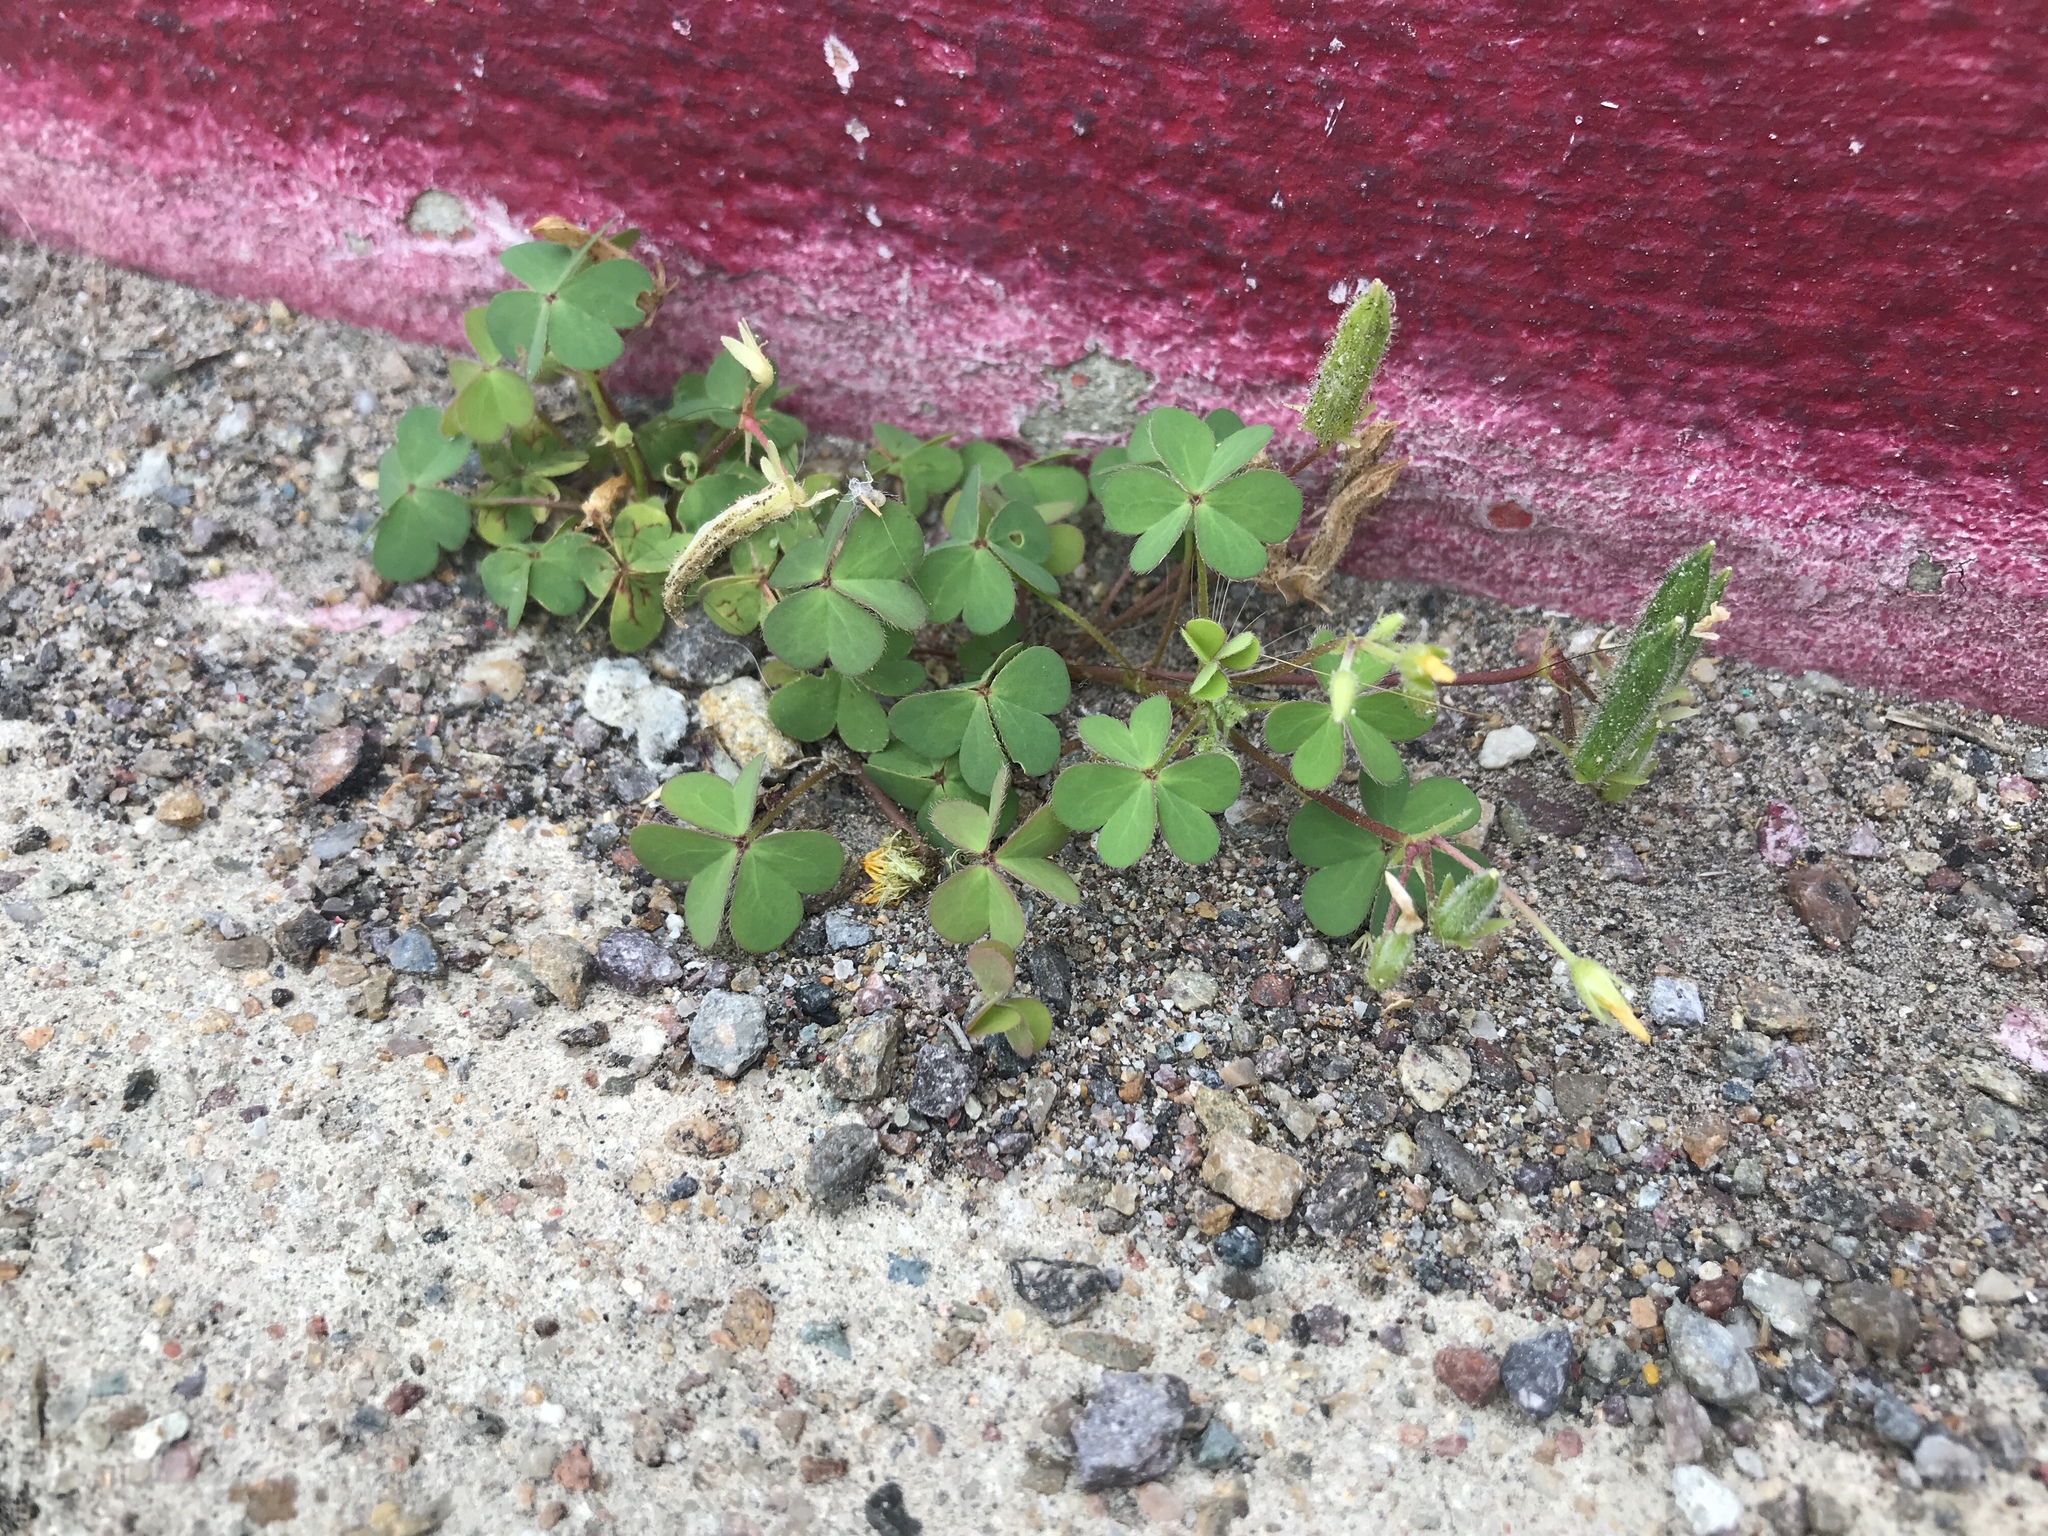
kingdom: Plantae
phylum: Tracheophyta
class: Magnoliopsida
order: Oxalidales
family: Oxalidaceae
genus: Oxalis
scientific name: Oxalis corniculata
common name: Procumbent yellow-sorrel
